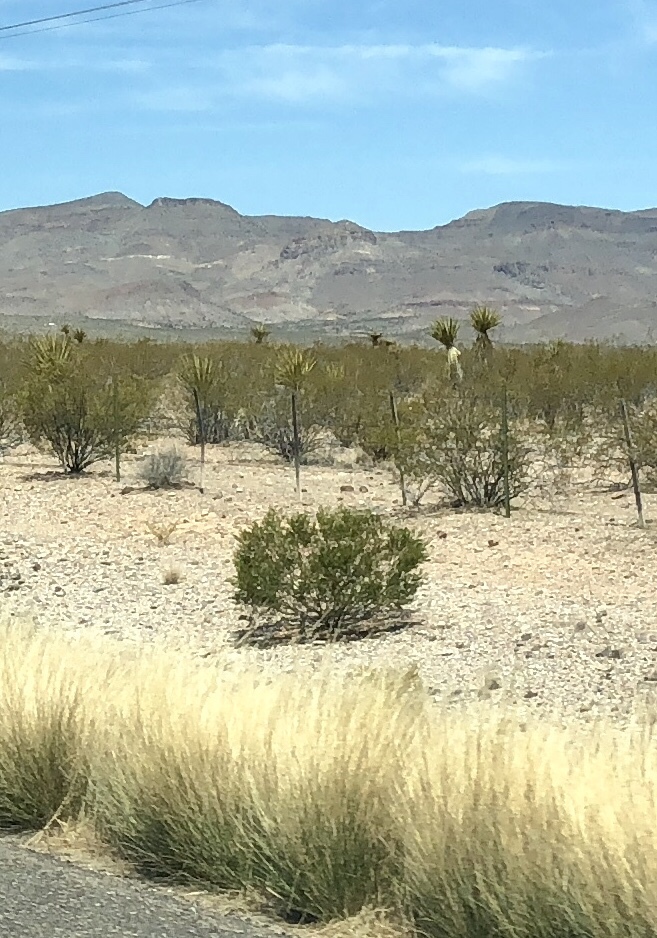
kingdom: Plantae
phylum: Tracheophyta
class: Magnoliopsida
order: Zygophyllales
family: Zygophyllaceae
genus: Larrea
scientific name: Larrea tridentata
